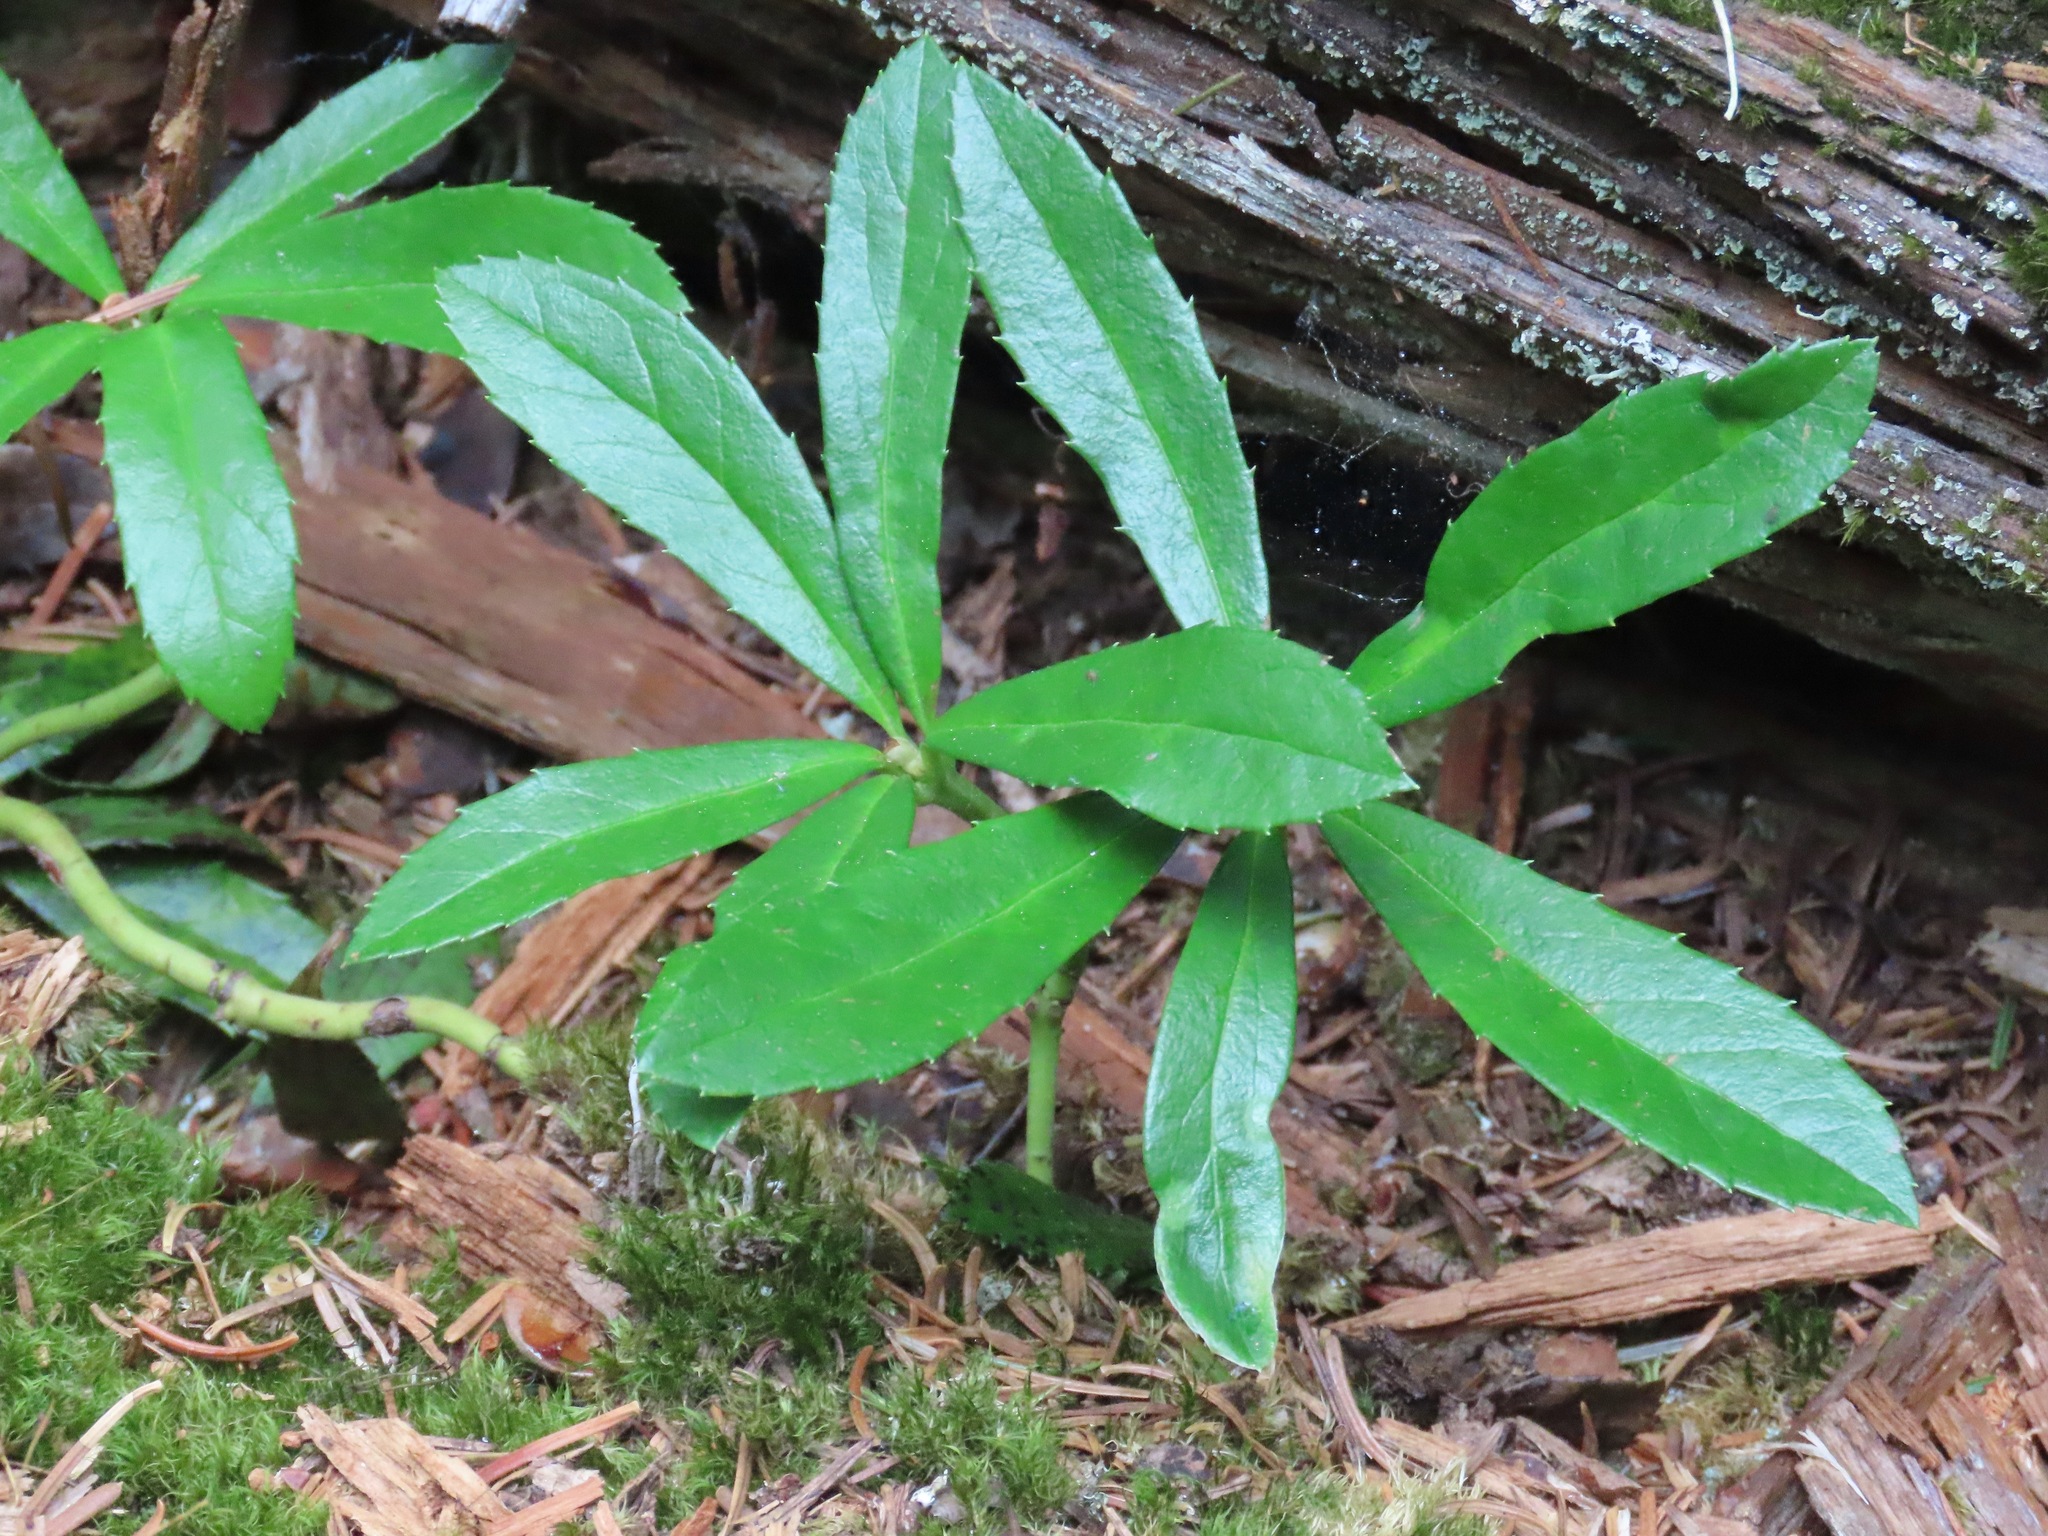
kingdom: Plantae
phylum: Tracheophyta
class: Magnoliopsida
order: Ericales
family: Ericaceae
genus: Chimaphila
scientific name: Chimaphila umbellata
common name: Pipsissewa
